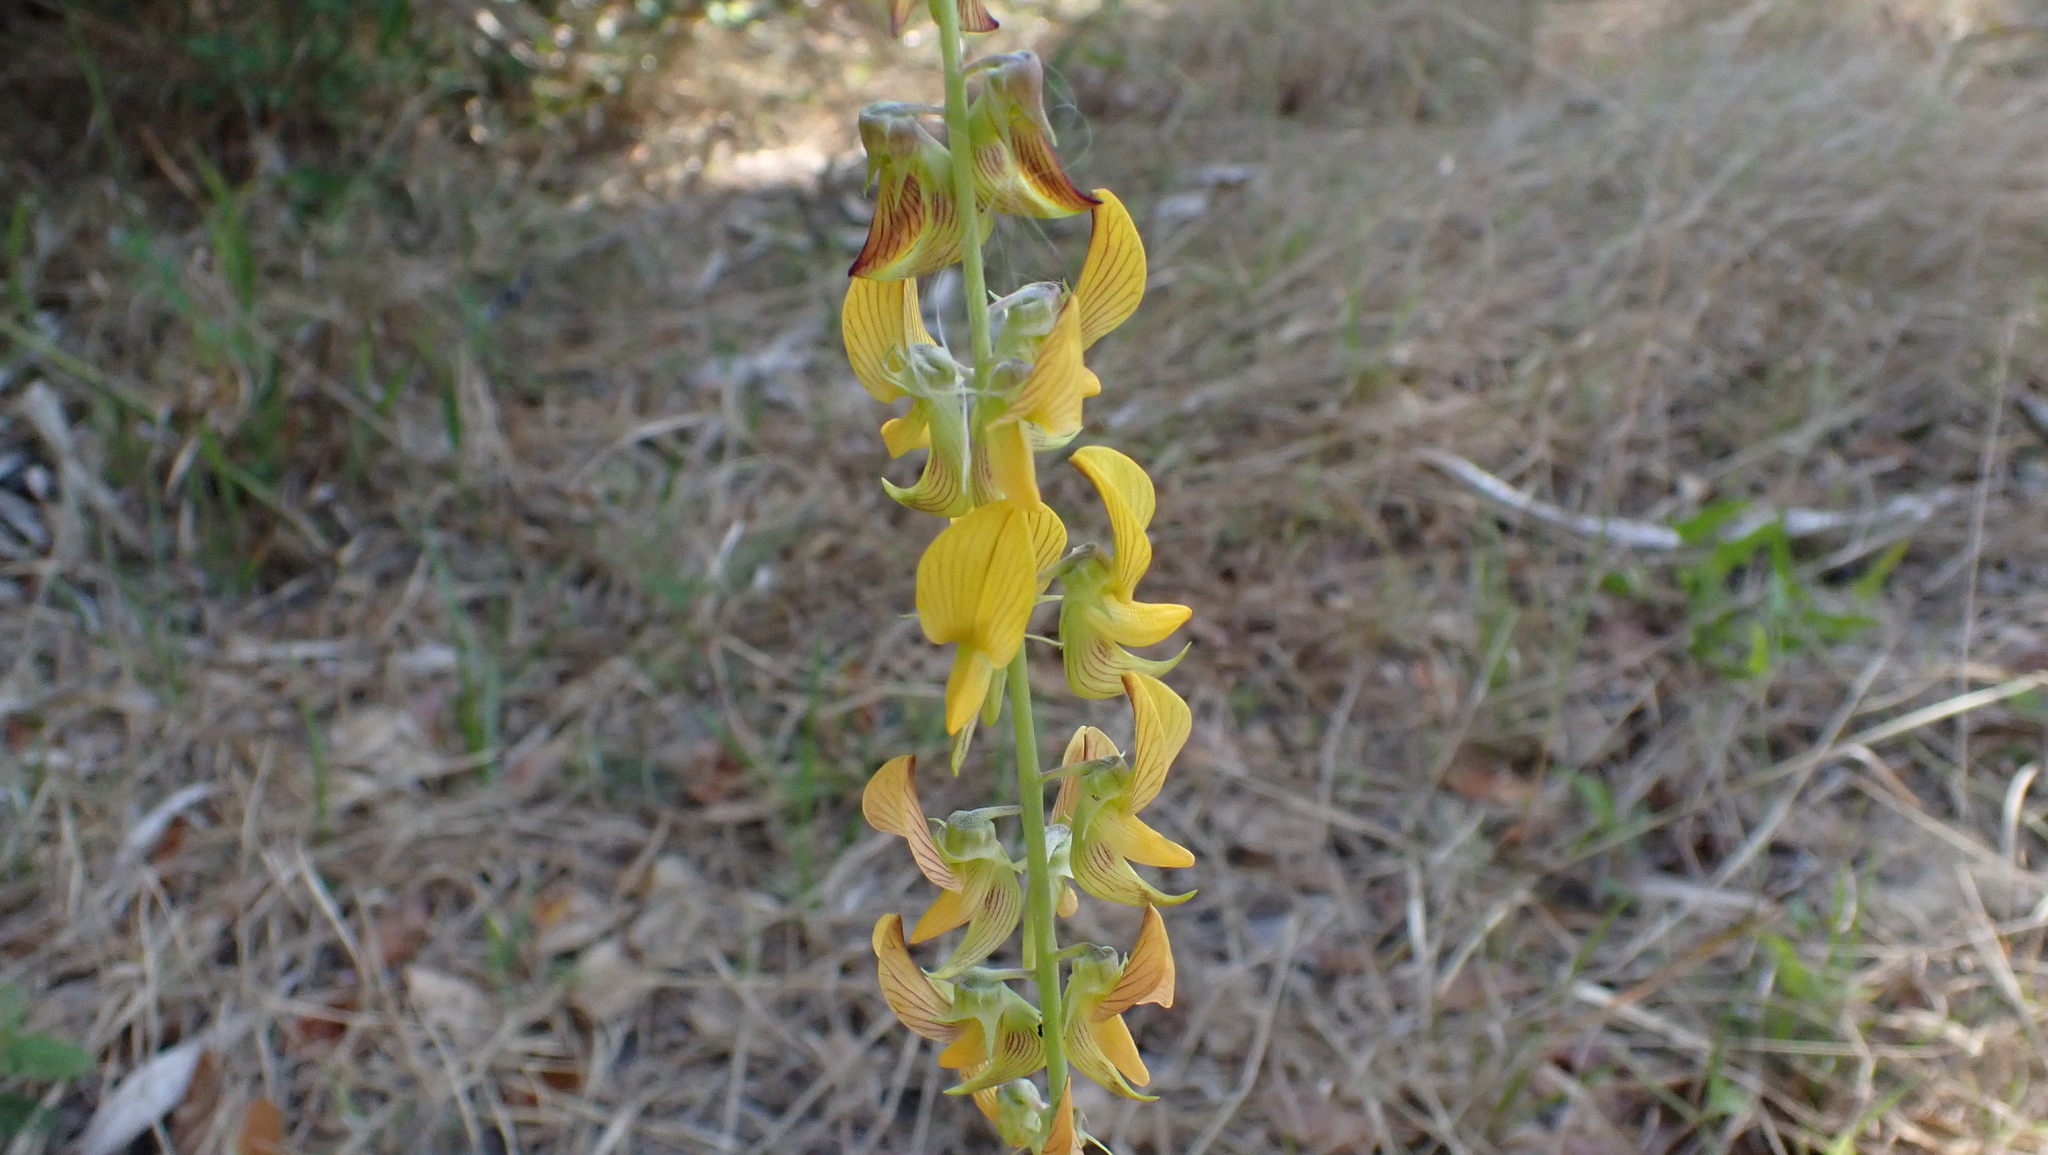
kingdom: Plantae
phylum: Tracheophyta
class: Magnoliopsida
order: Fabales
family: Fabaceae
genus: Crotalaria
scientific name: Crotalaria pallida
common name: Smooth rattlebox
